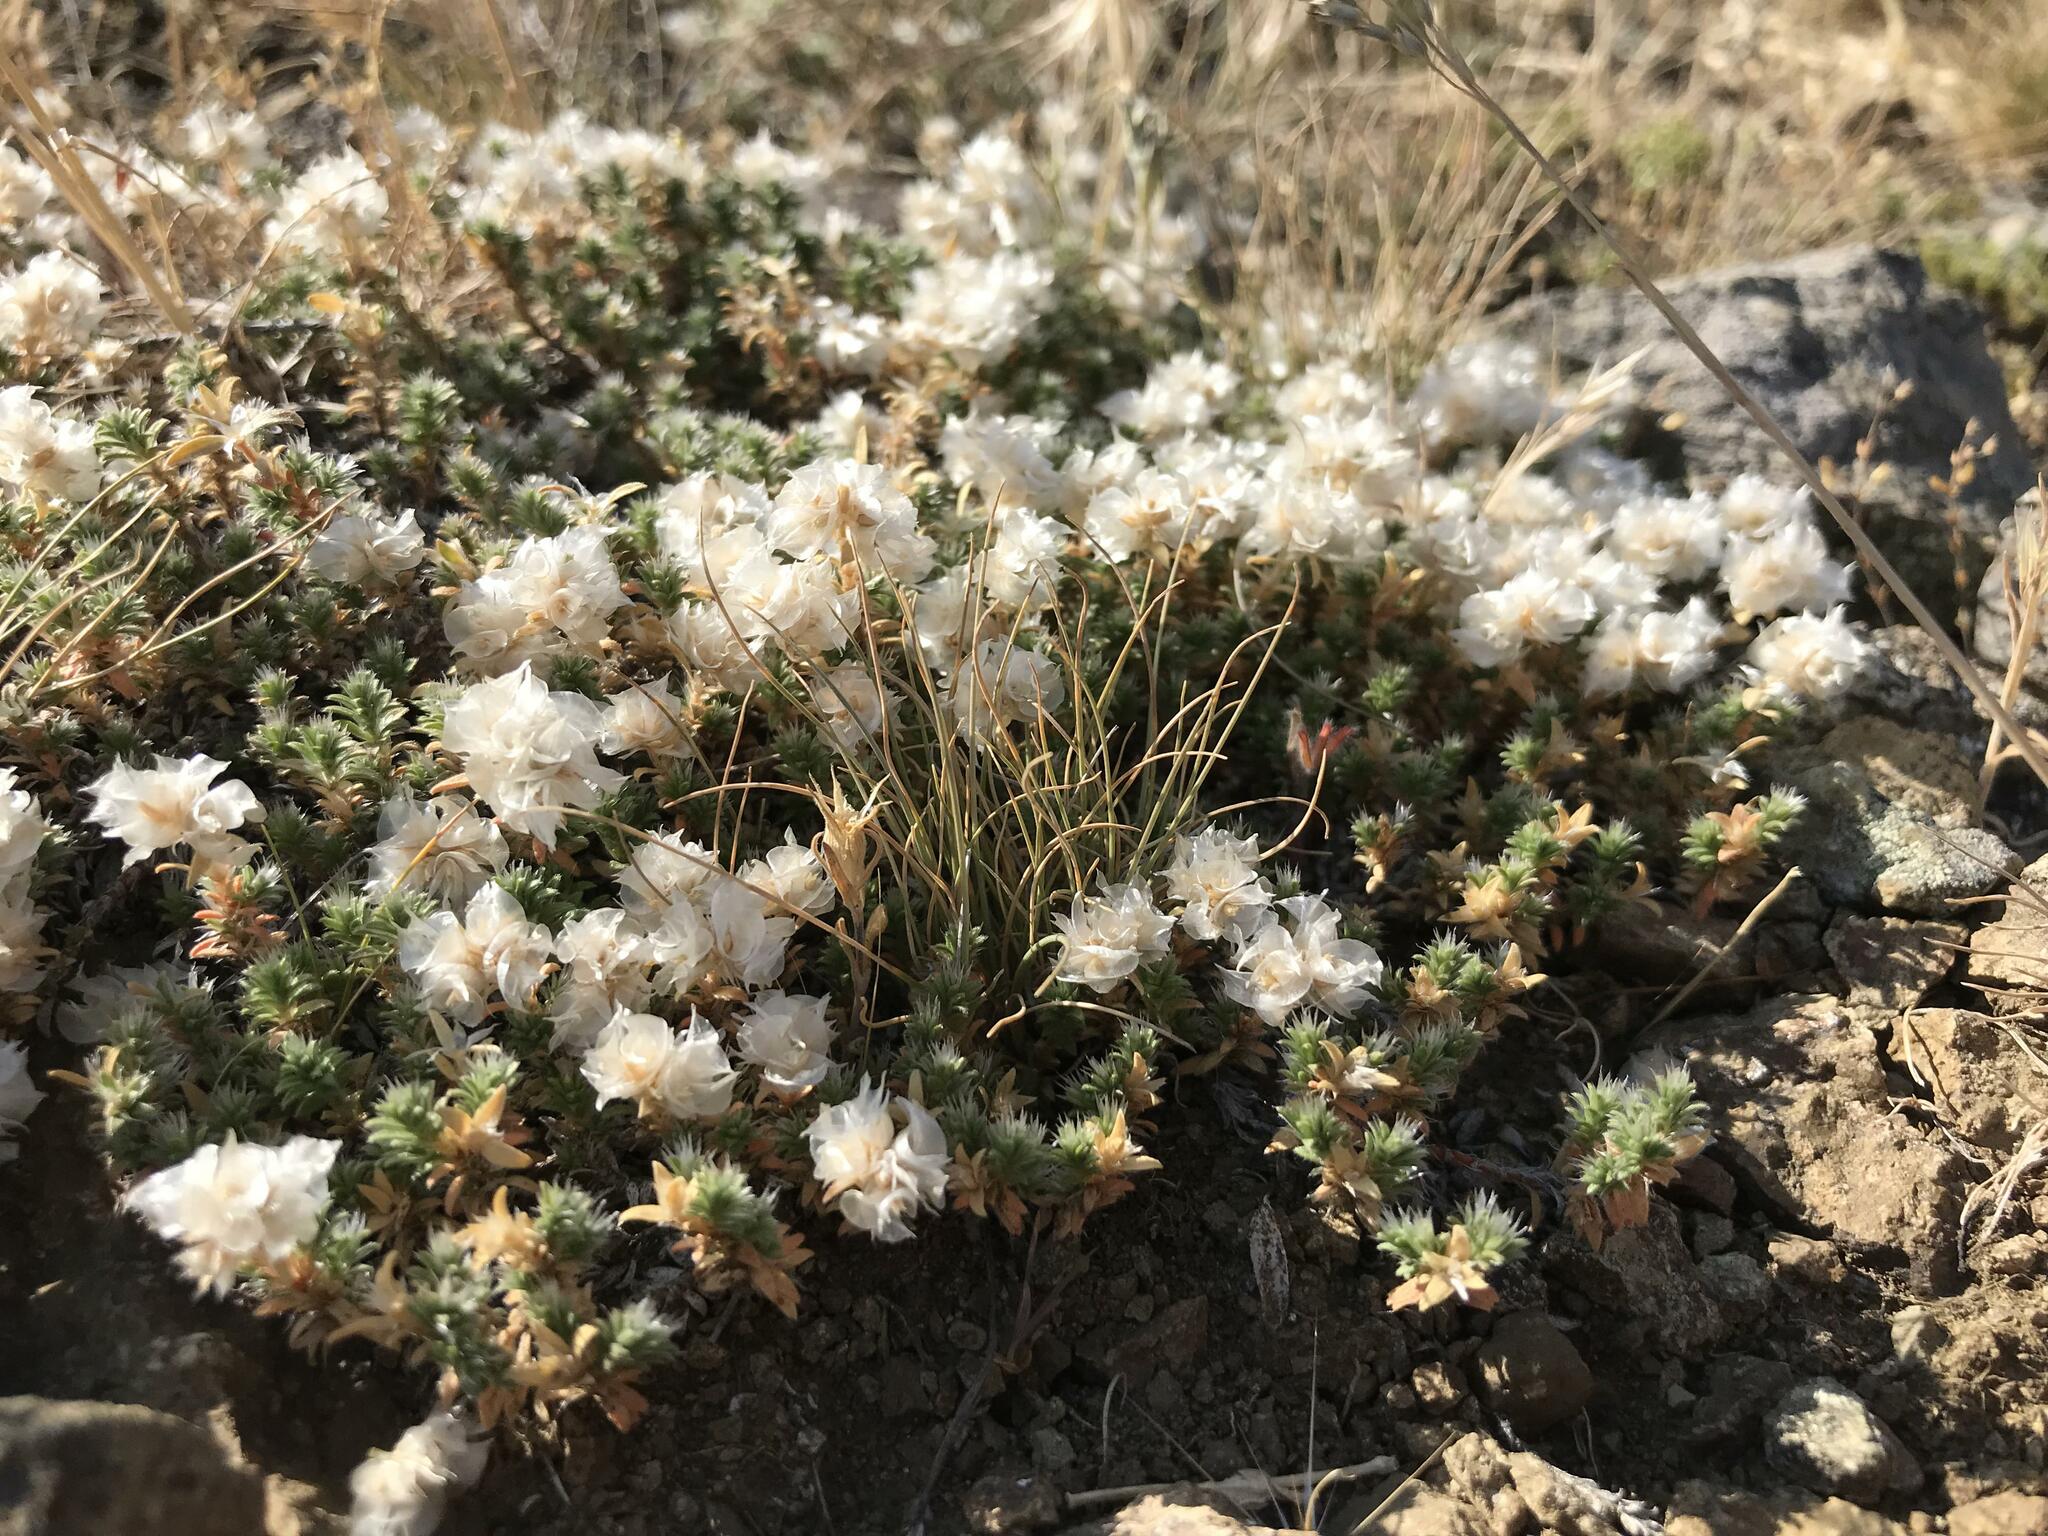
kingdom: Plantae
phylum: Tracheophyta
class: Magnoliopsida
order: Caryophyllales
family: Caryophyllaceae
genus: Paronychia
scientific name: Paronychia cephalotes
